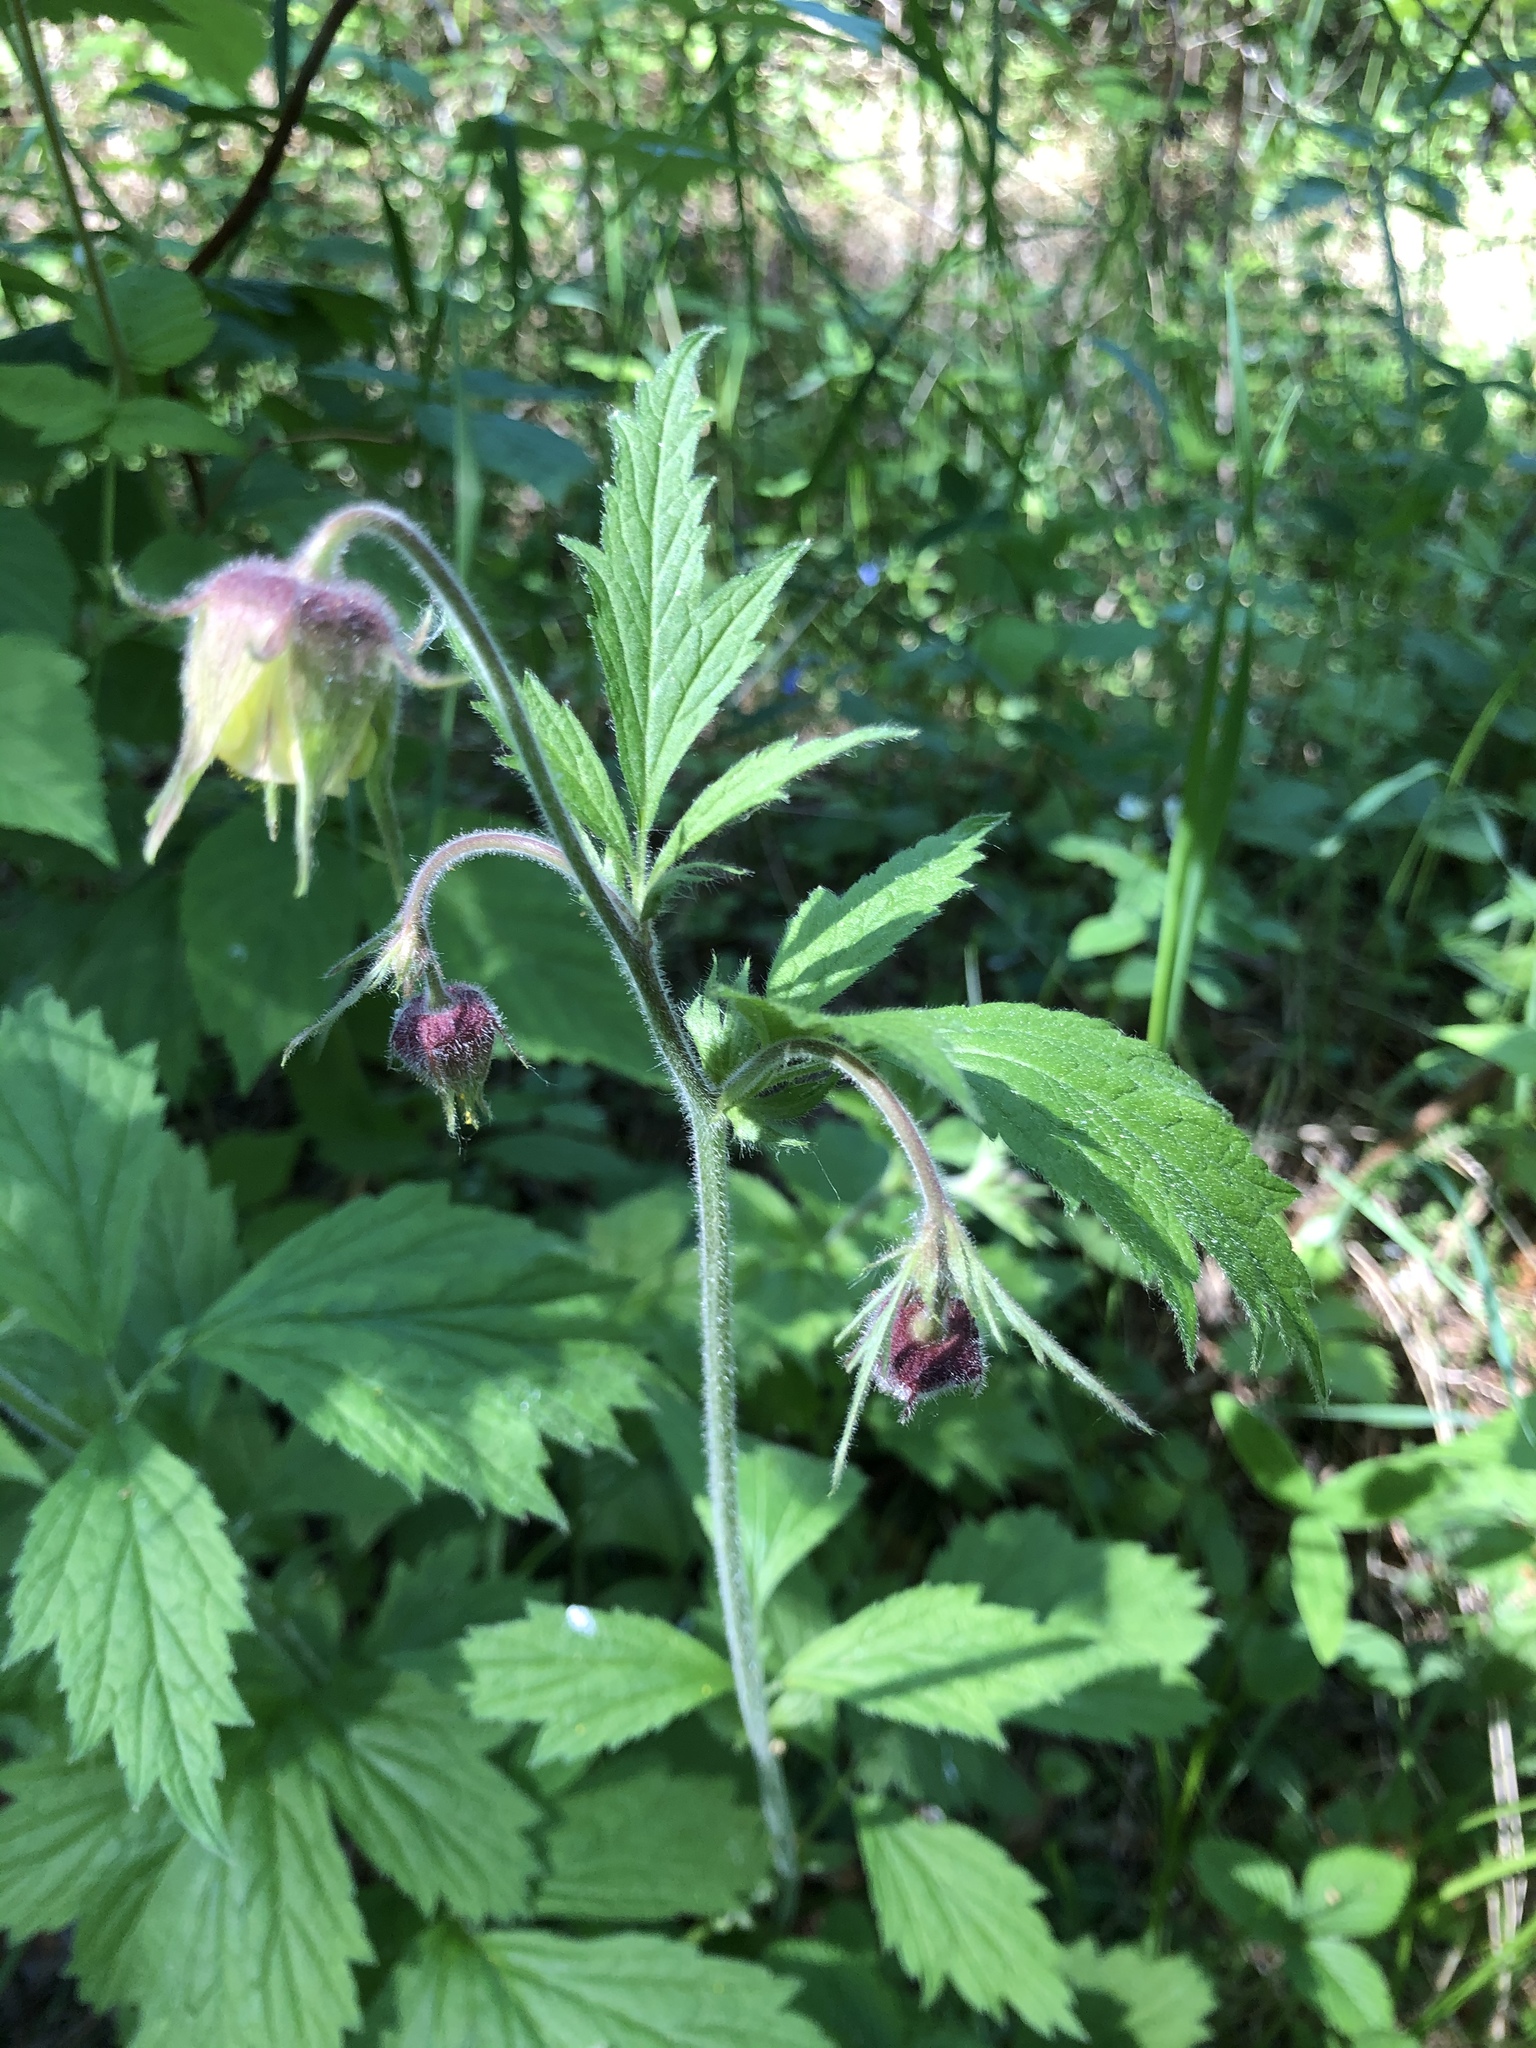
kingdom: Plantae
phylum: Tracheophyta
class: Magnoliopsida
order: Rosales
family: Rosaceae
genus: Geum
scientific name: Geum rivale
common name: Water avens
